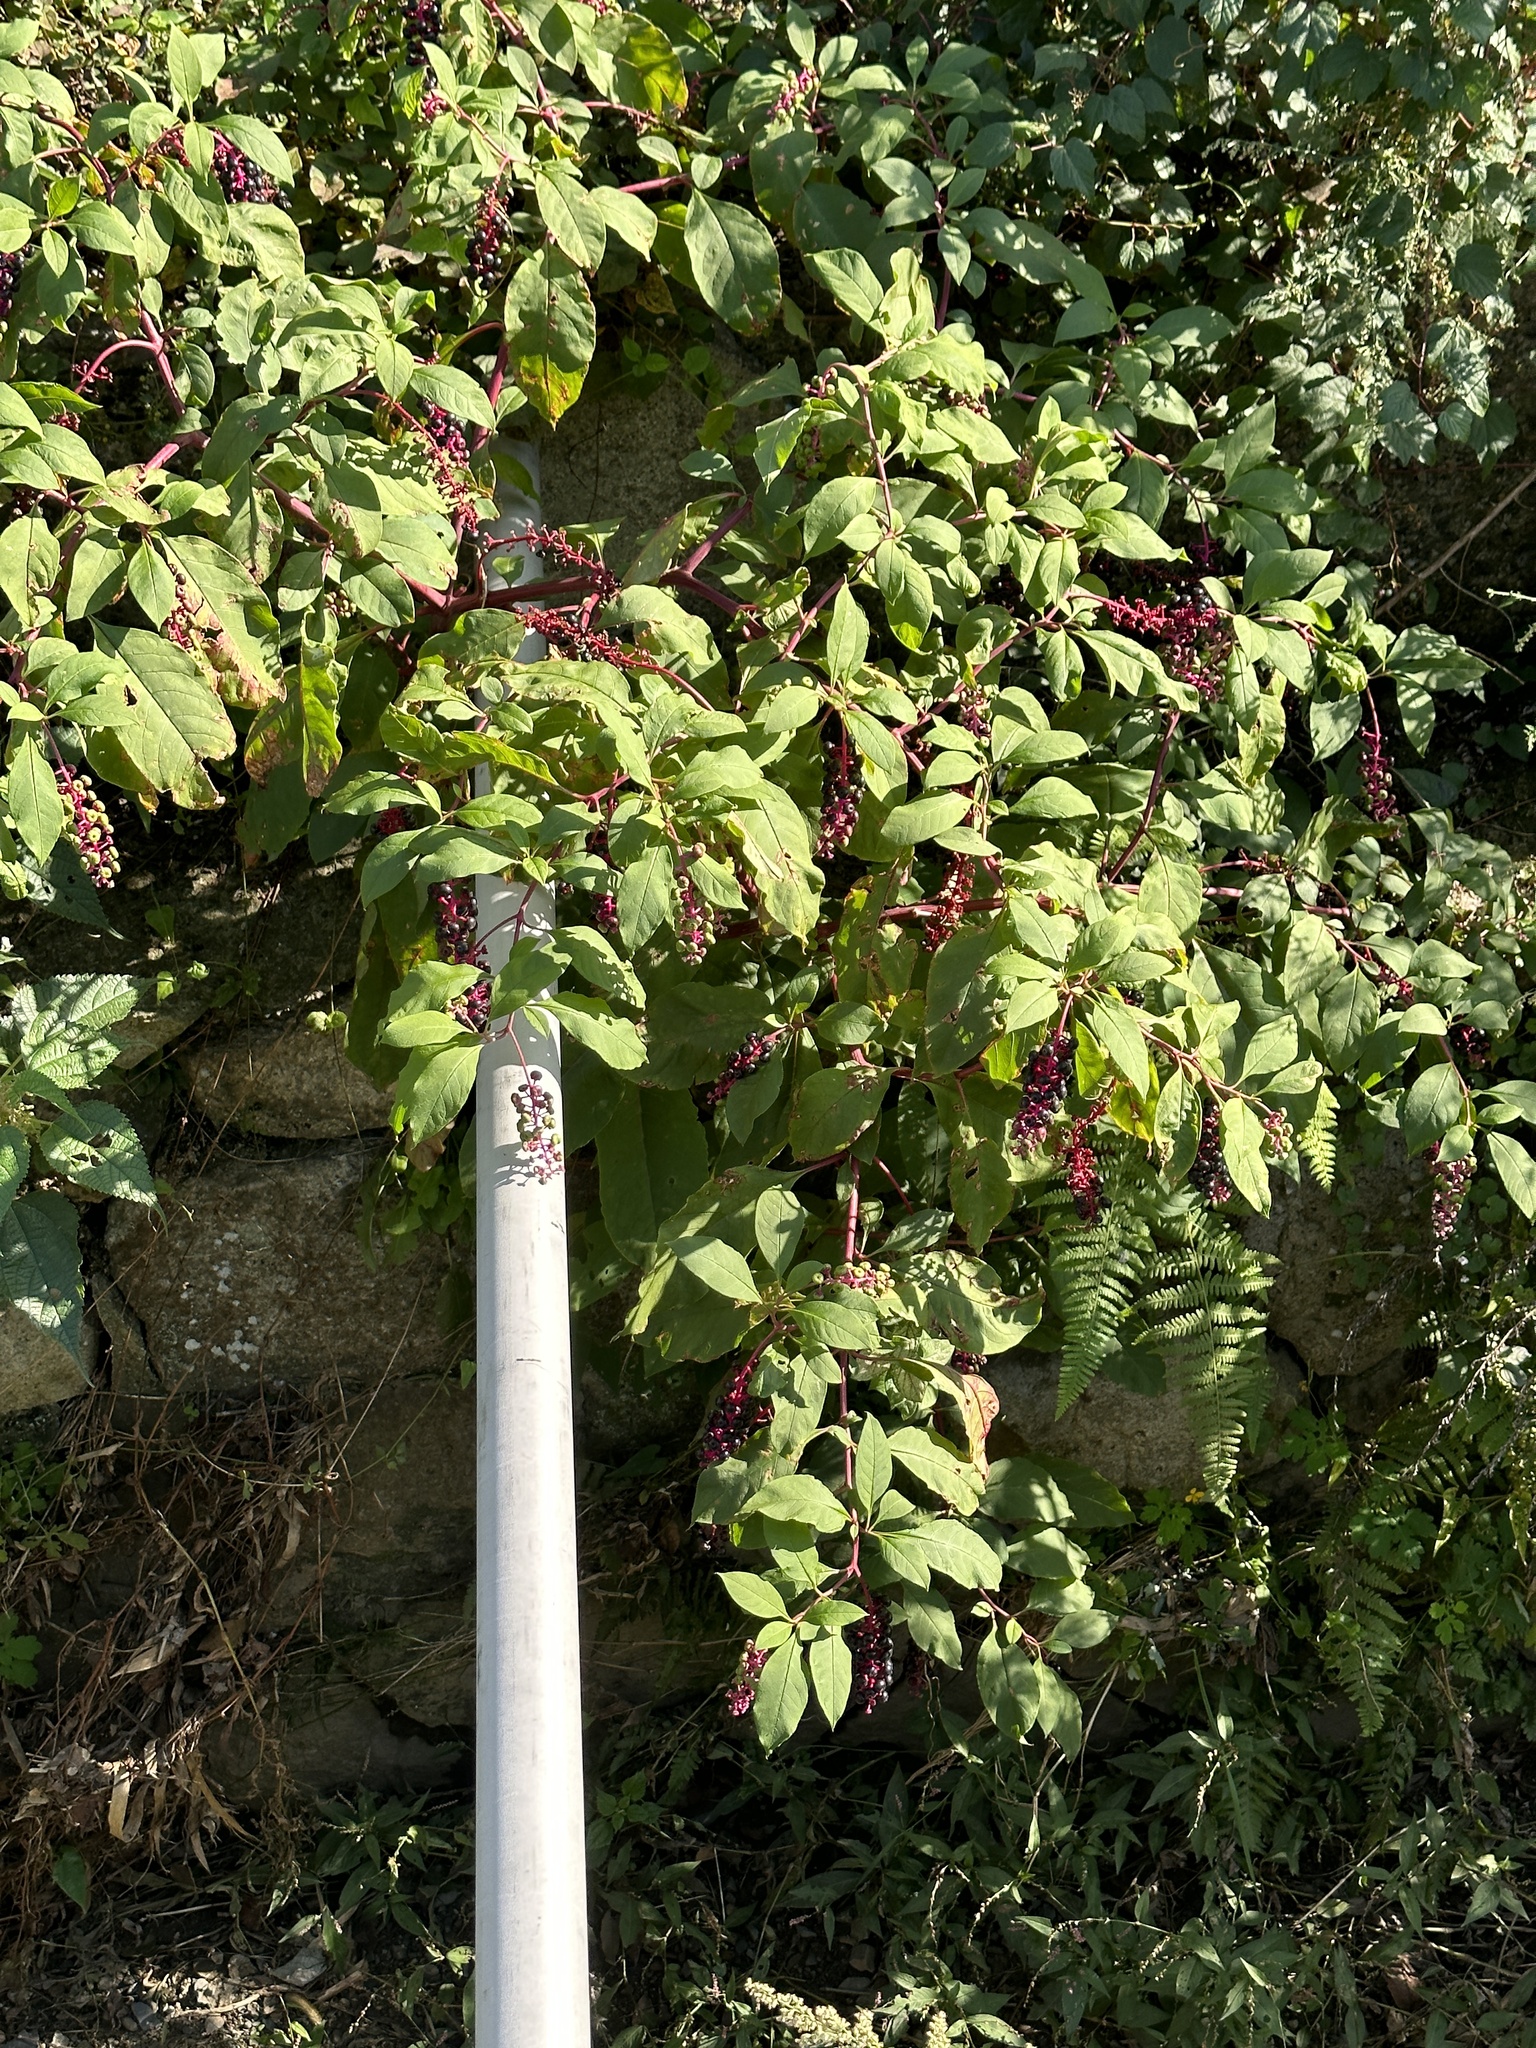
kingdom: Plantae
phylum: Tracheophyta
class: Magnoliopsida
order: Caryophyllales
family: Phytolaccaceae
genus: Phytolacca
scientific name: Phytolacca americana
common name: American pokeweed
